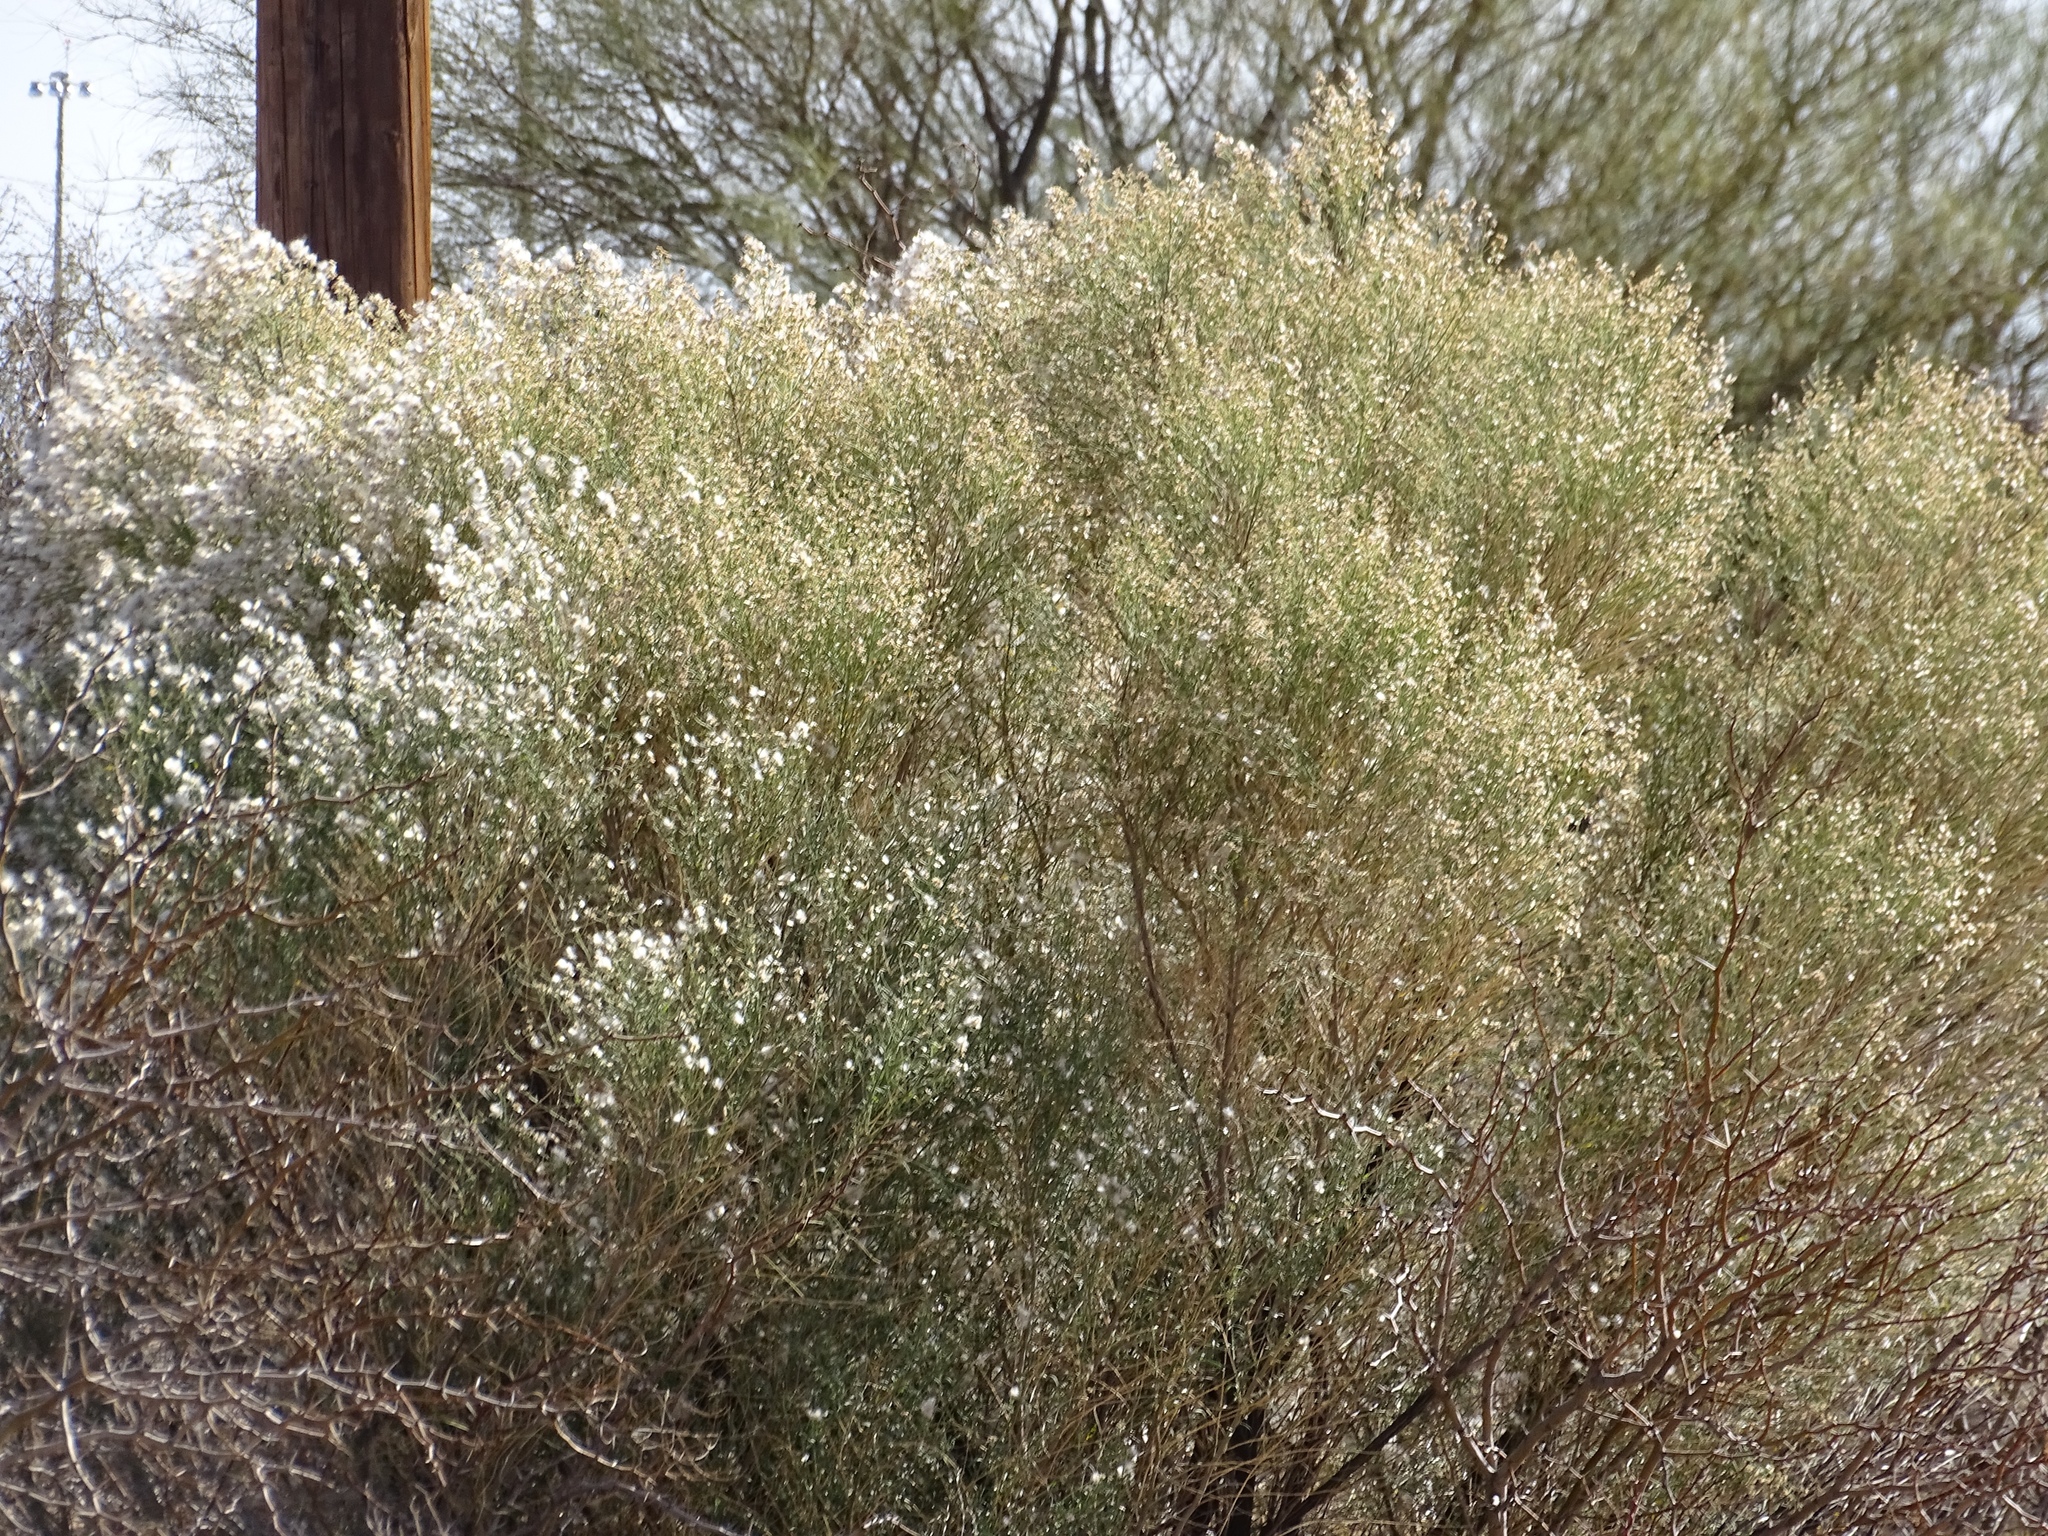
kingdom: Plantae
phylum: Tracheophyta
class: Magnoliopsida
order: Asterales
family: Asteraceae
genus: Baccharis
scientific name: Baccharis sarothroides
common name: Desert-broom
